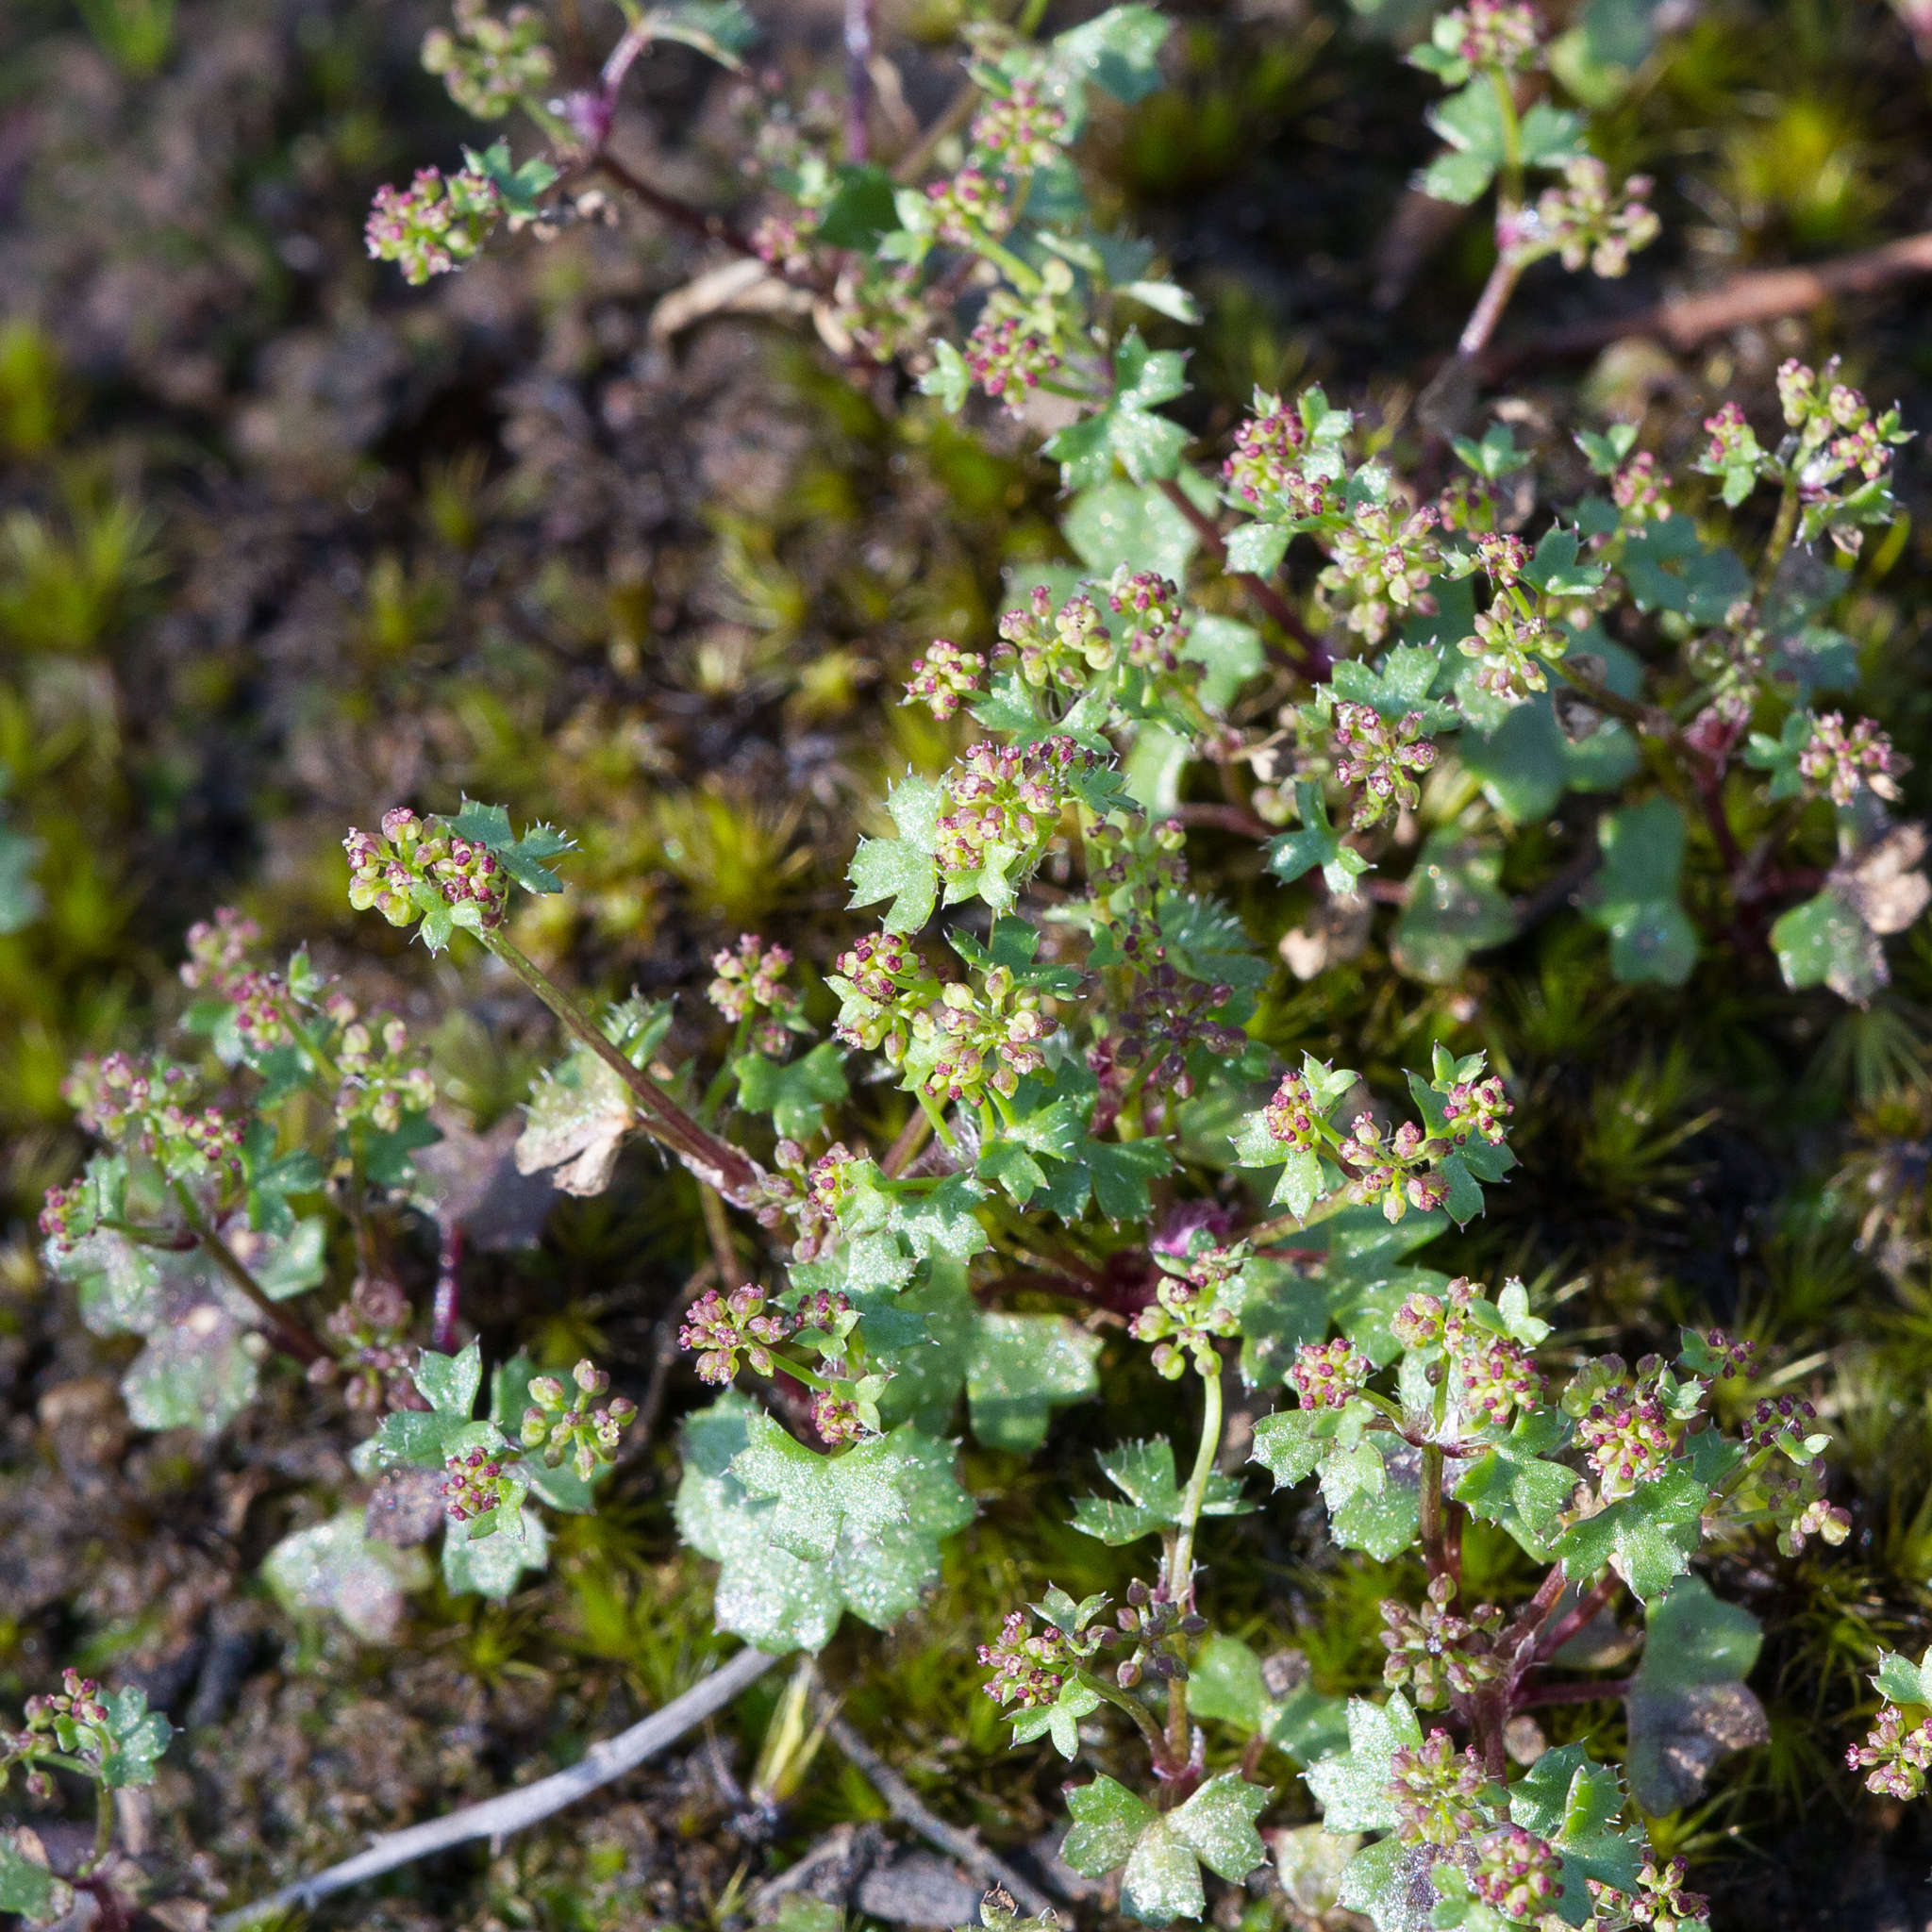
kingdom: Plantae
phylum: Tracheophyta
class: Magnoliopsida
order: Apiales
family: Araliaceae
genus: Hydrocotyle
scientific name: Hydrocotyle callicarpa
